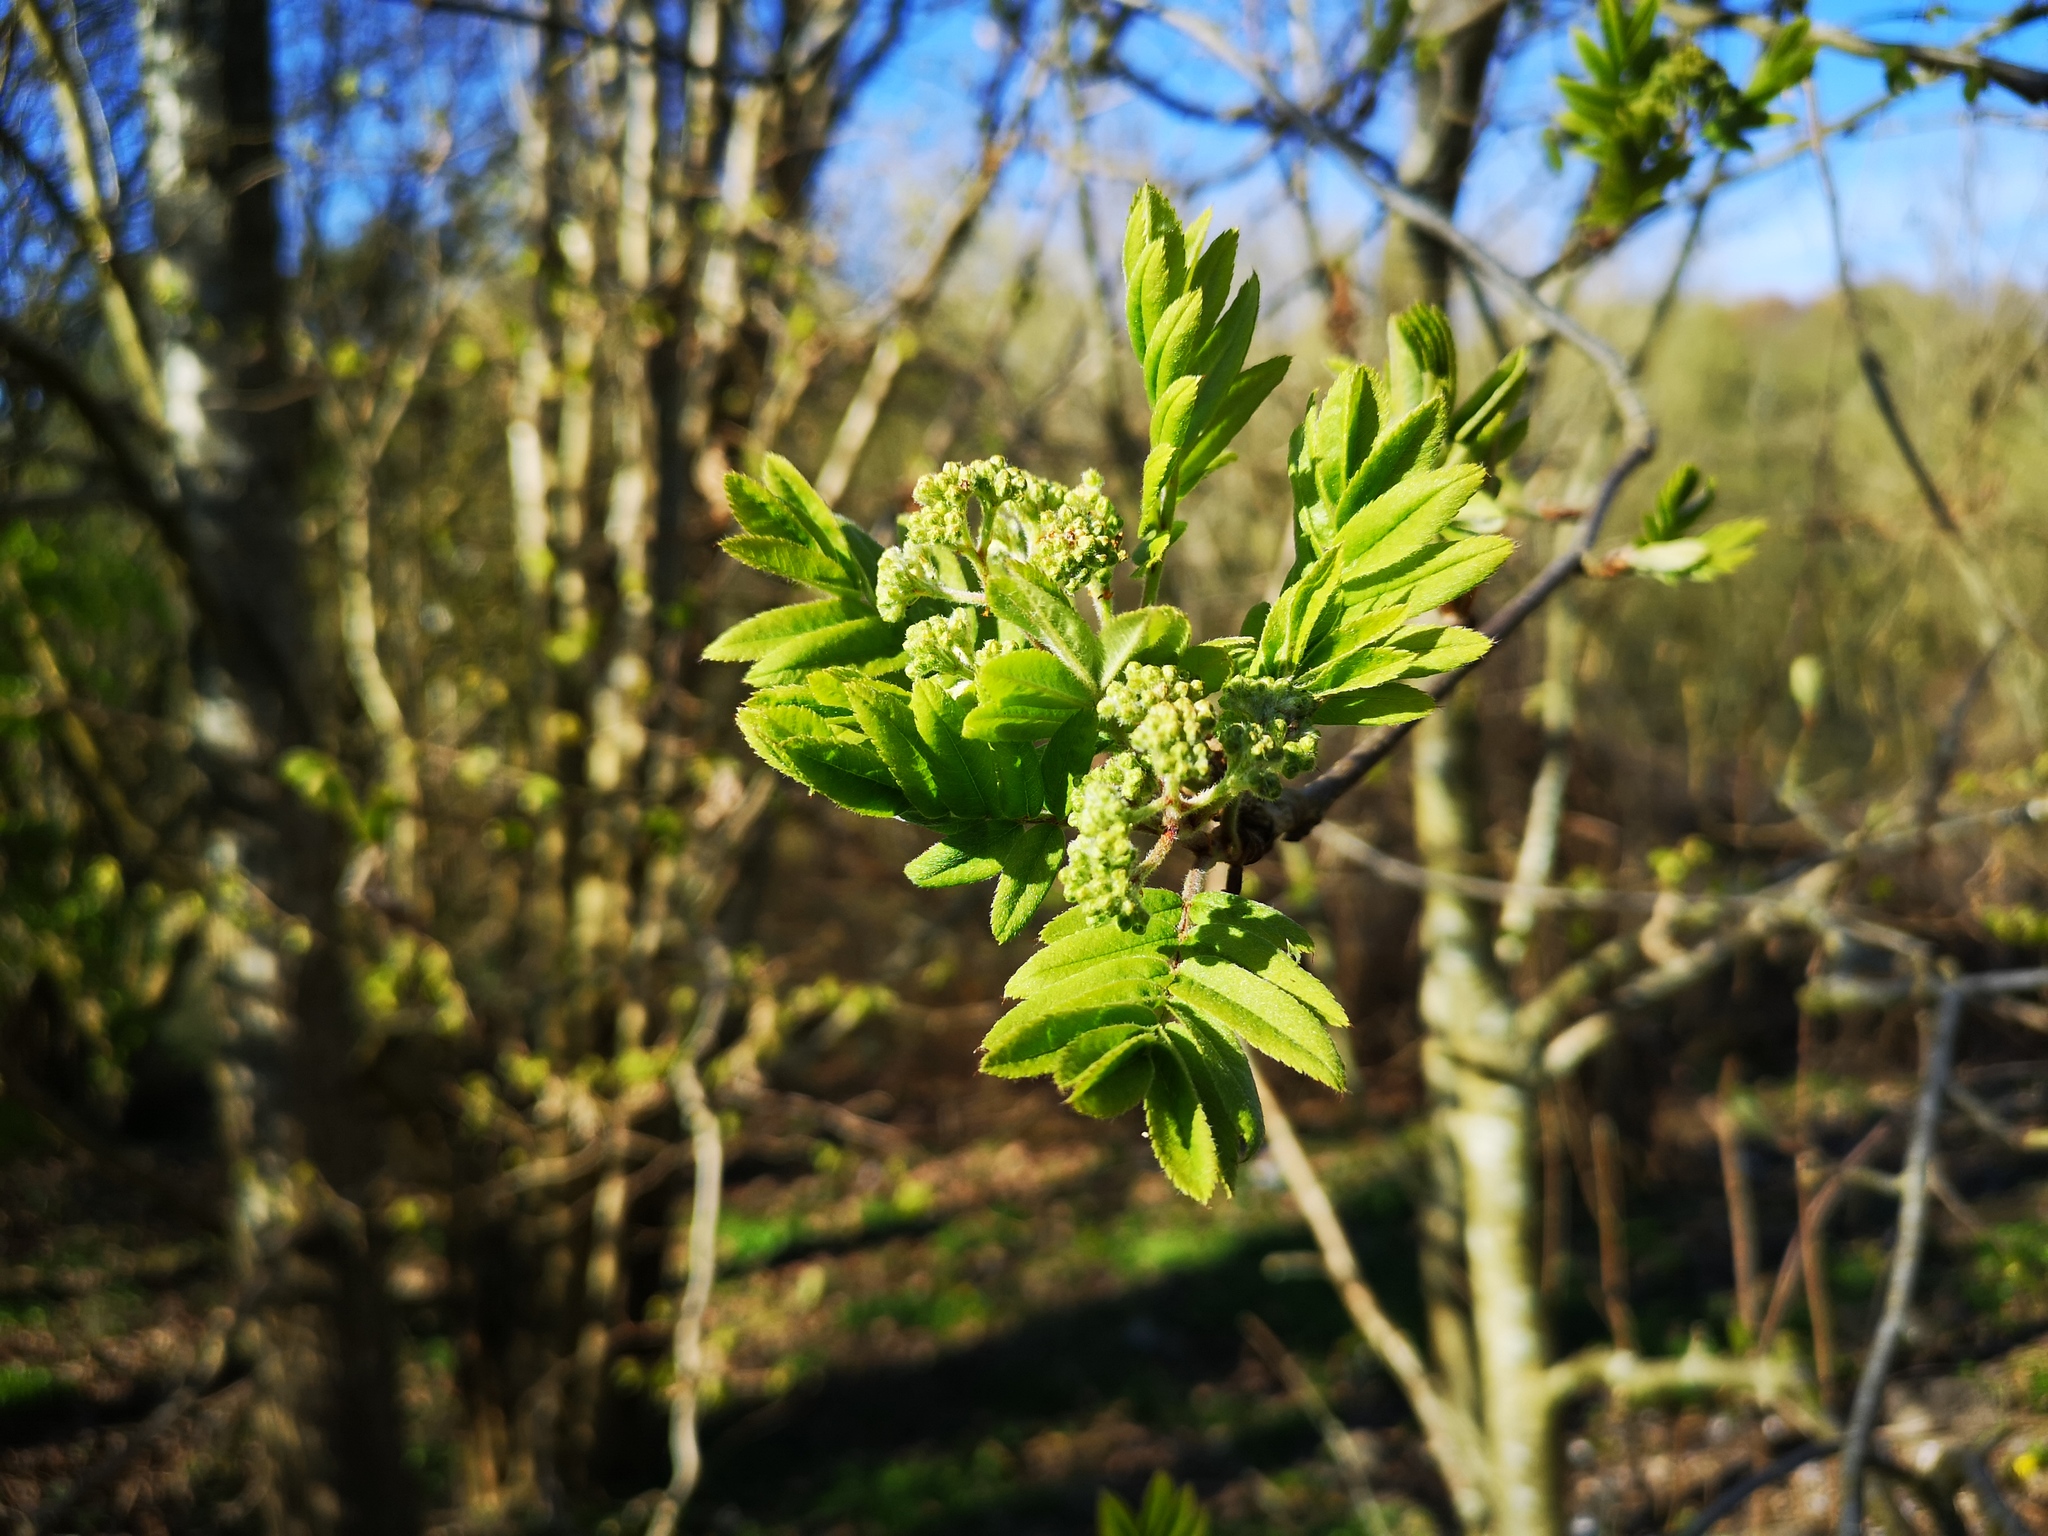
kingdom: Plantae
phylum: Tracheophyta
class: Magnoliopsida
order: Rosales
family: Rosaceae
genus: Sorbus
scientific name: Sorbus aucuparia
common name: Rowan
